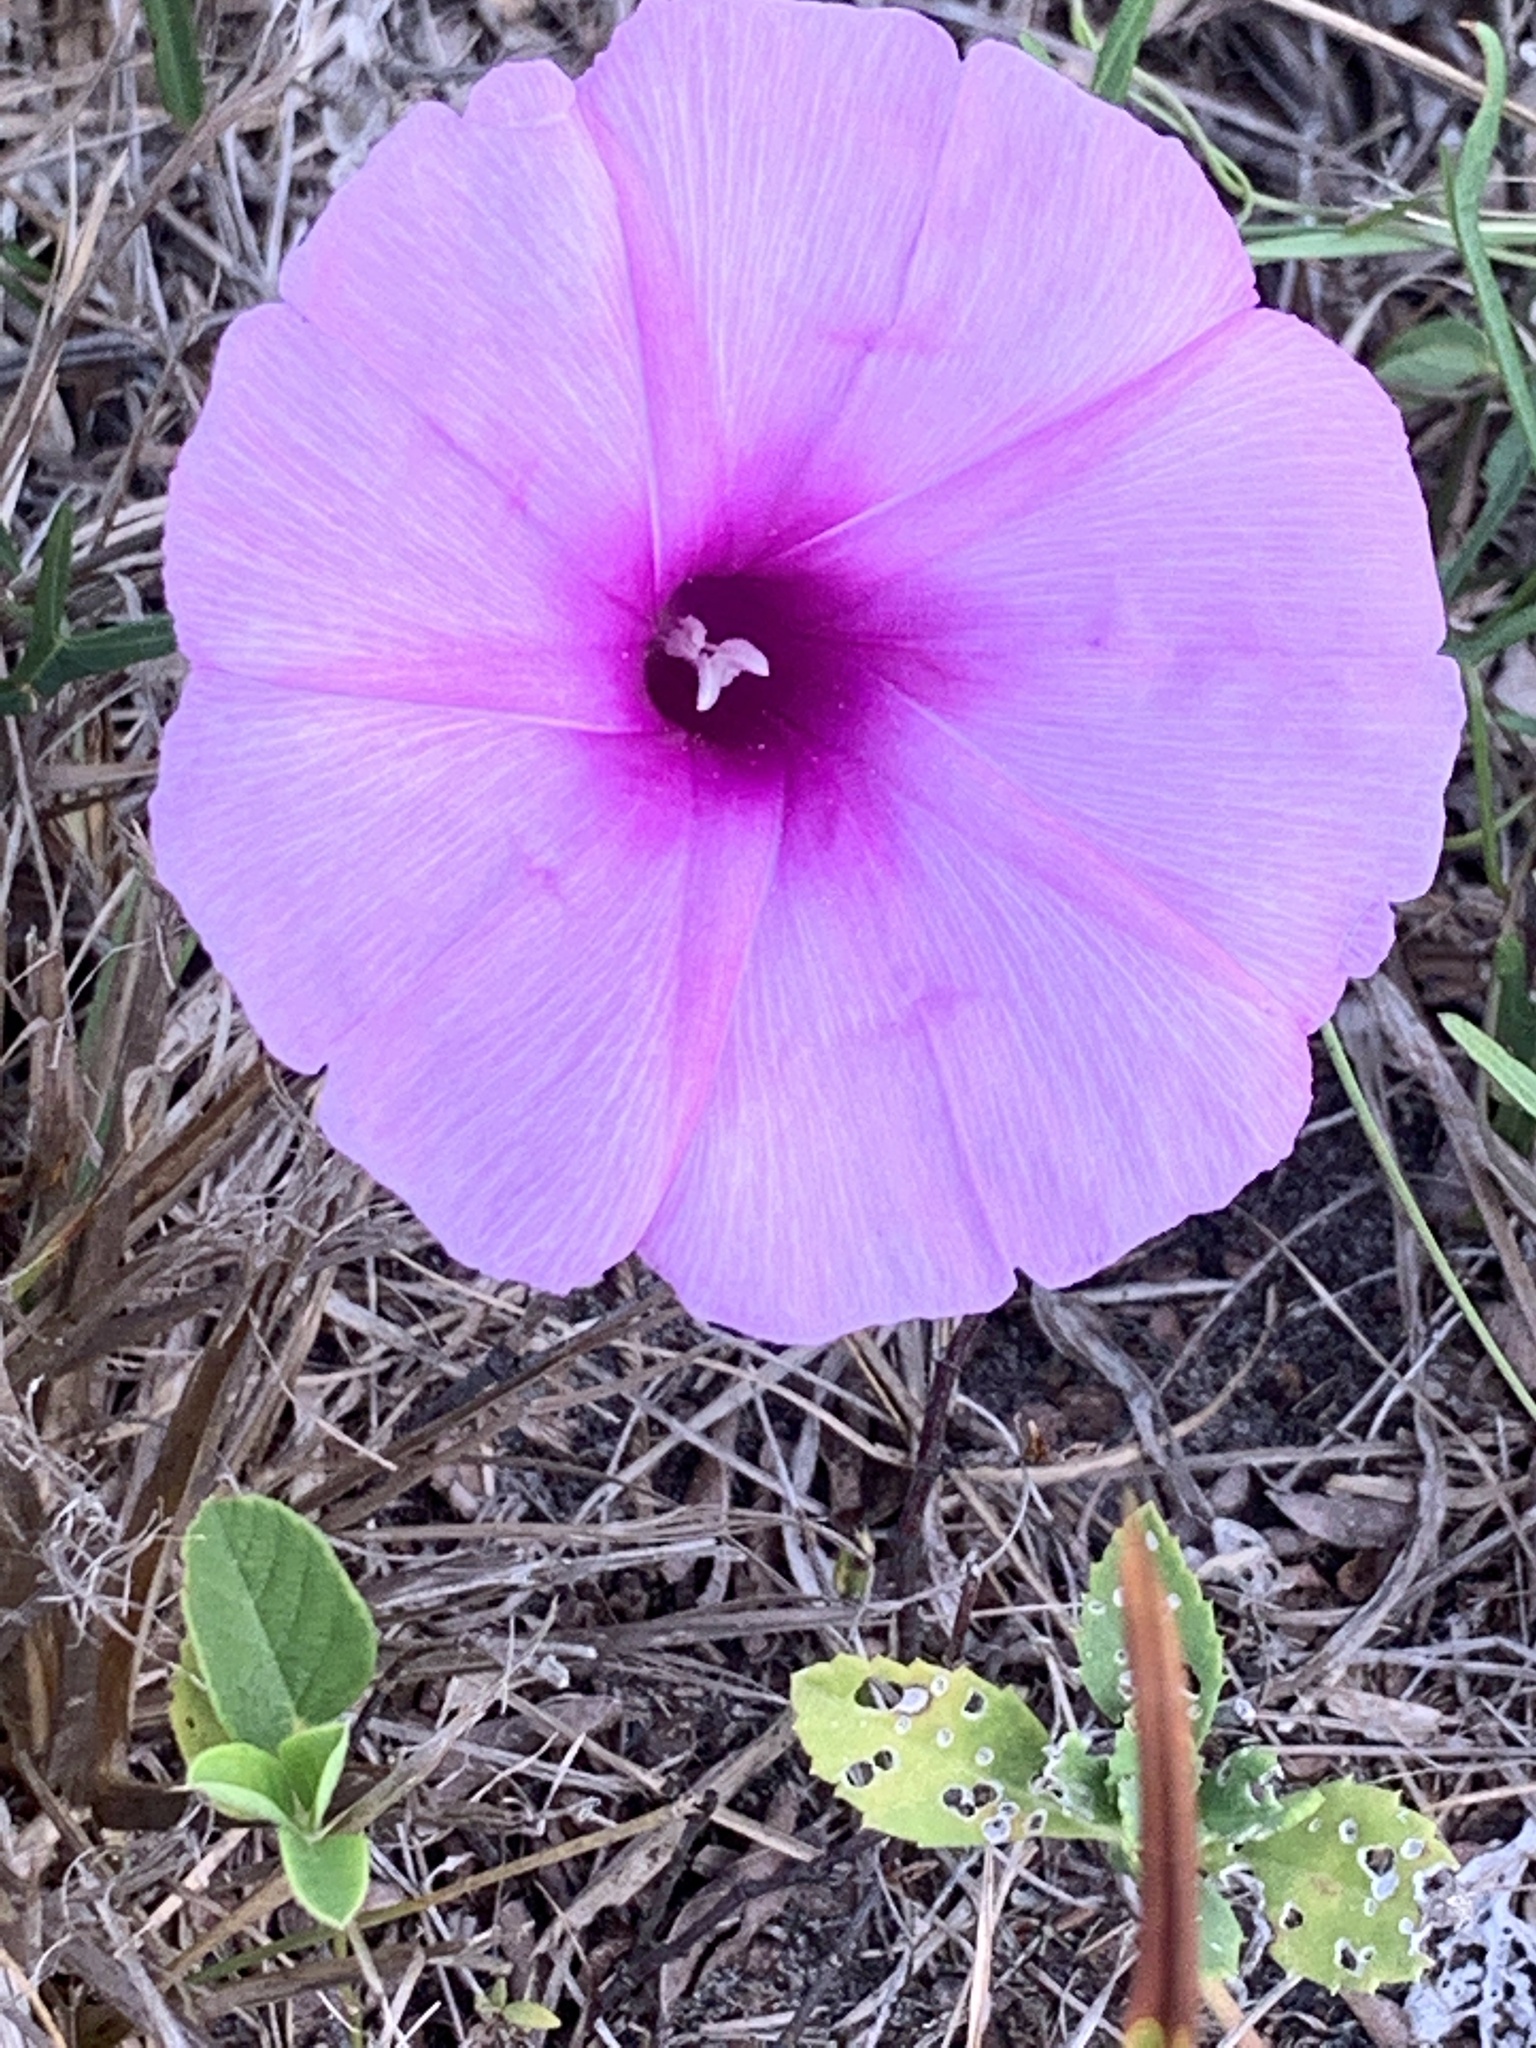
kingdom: Plantae
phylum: Tracheophyta
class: Magnoliopsida
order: Solanales
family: Convolvulaceae
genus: Ipomoea
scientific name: Ipomoea sagittata
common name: Saltmarsh morning glory
